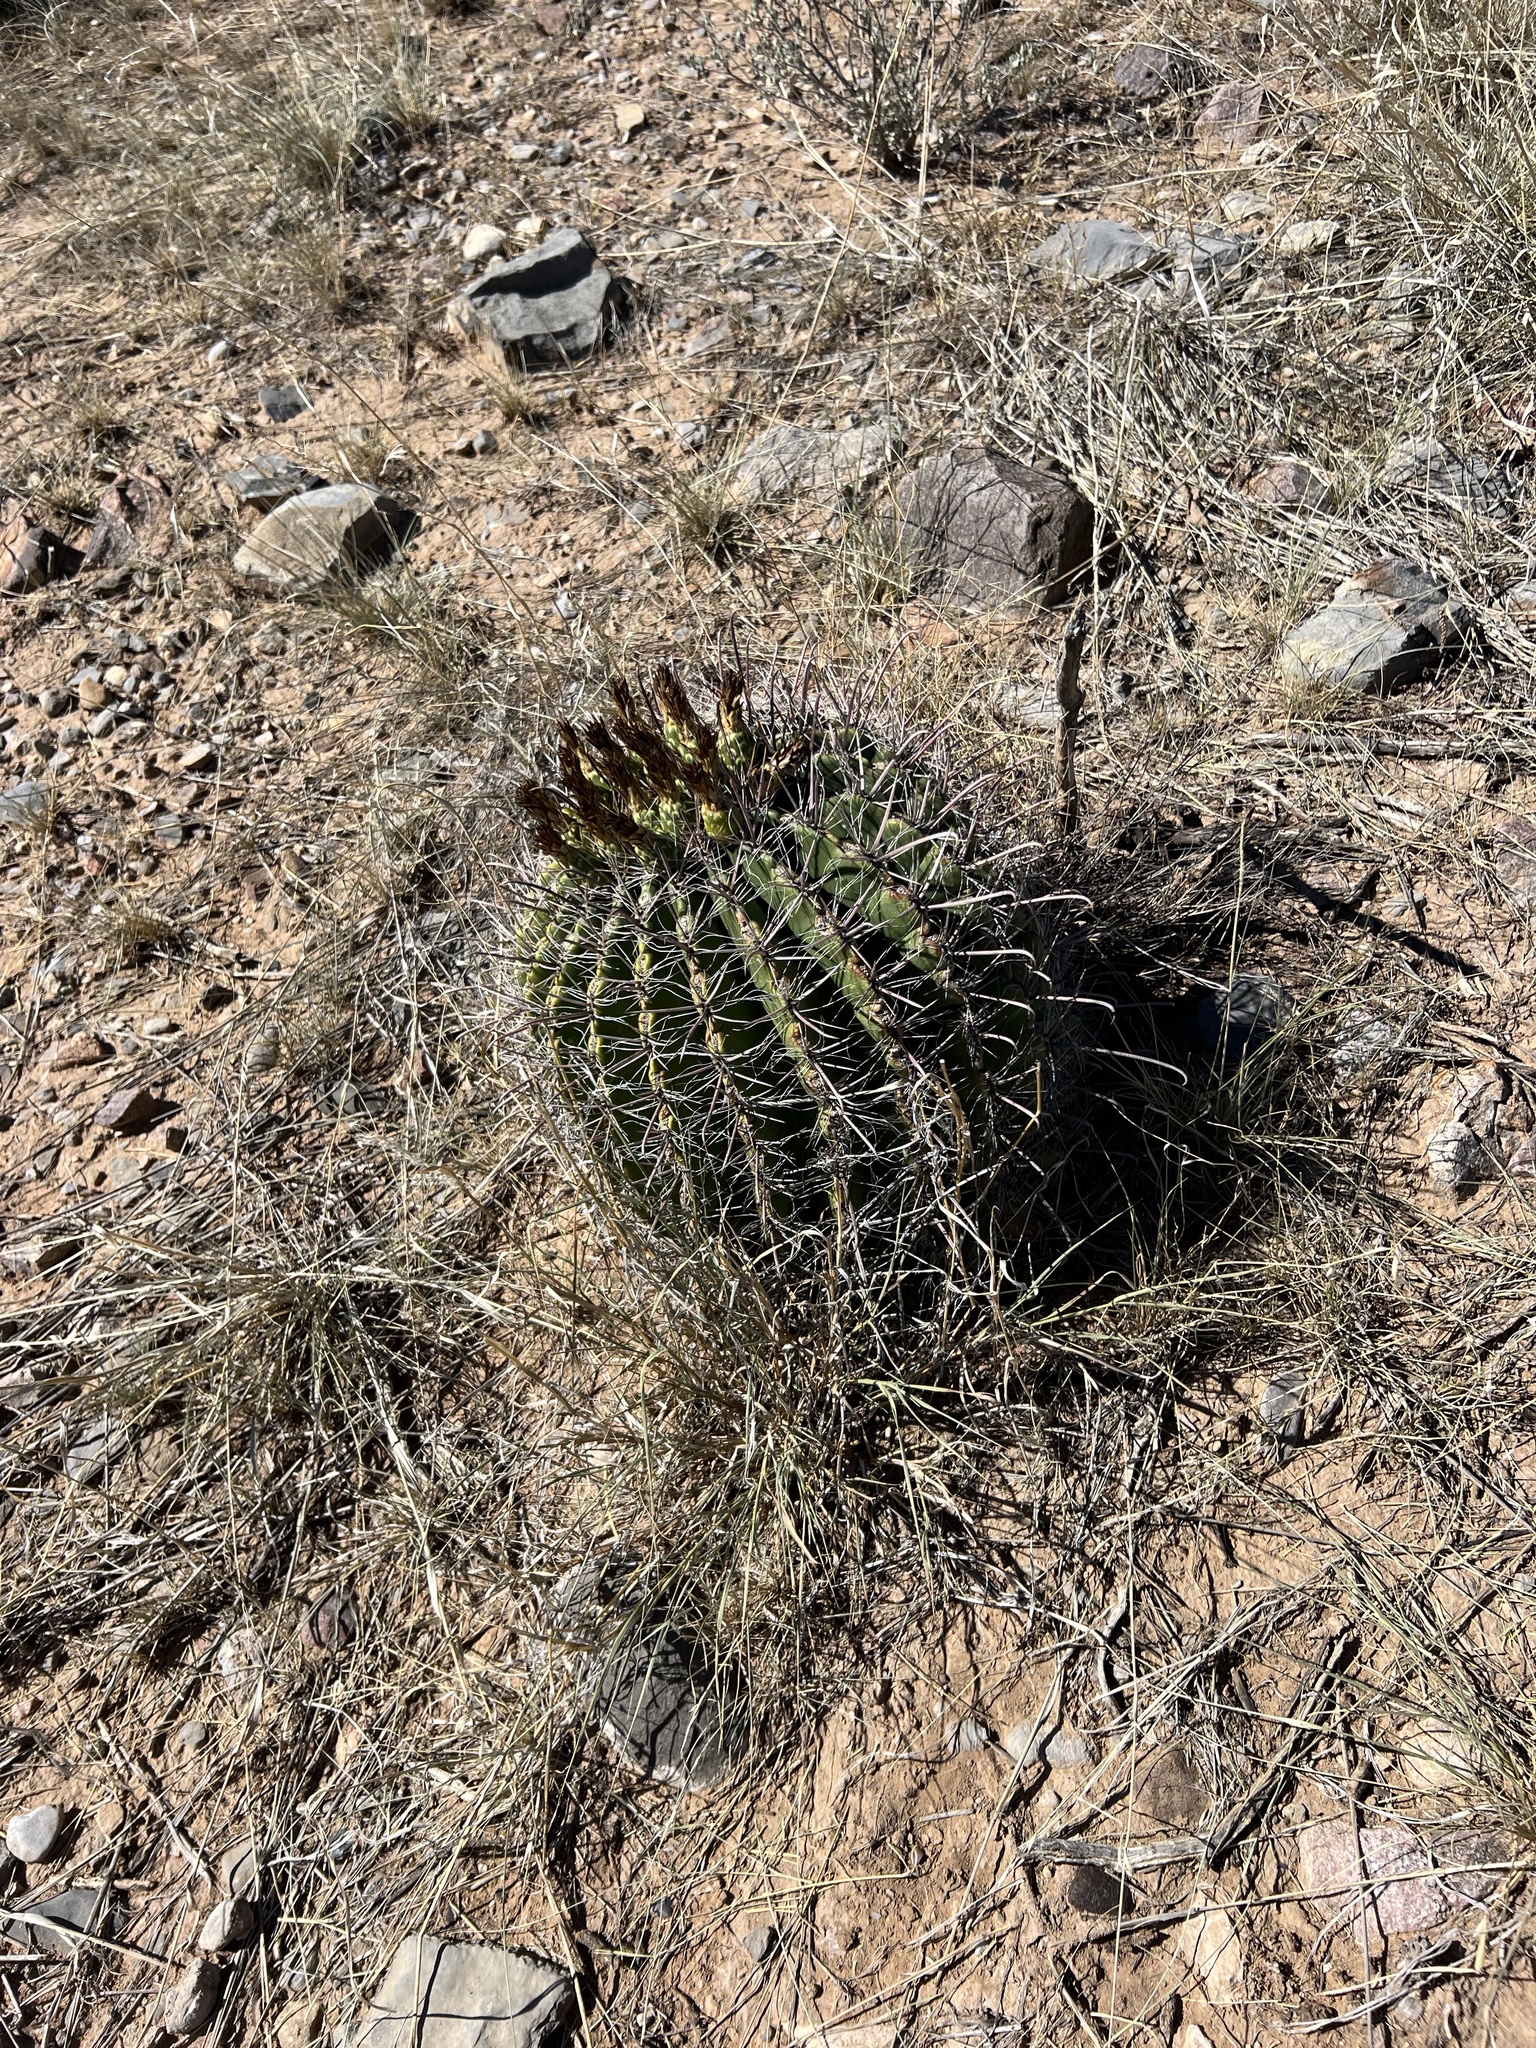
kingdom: Plantae
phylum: Tracheophyta
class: Magnoliopsida
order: Caryophyllales
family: Cactaceae
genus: Ferocactus
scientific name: Ferocactus wislizeni
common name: Candy barrel cactus
